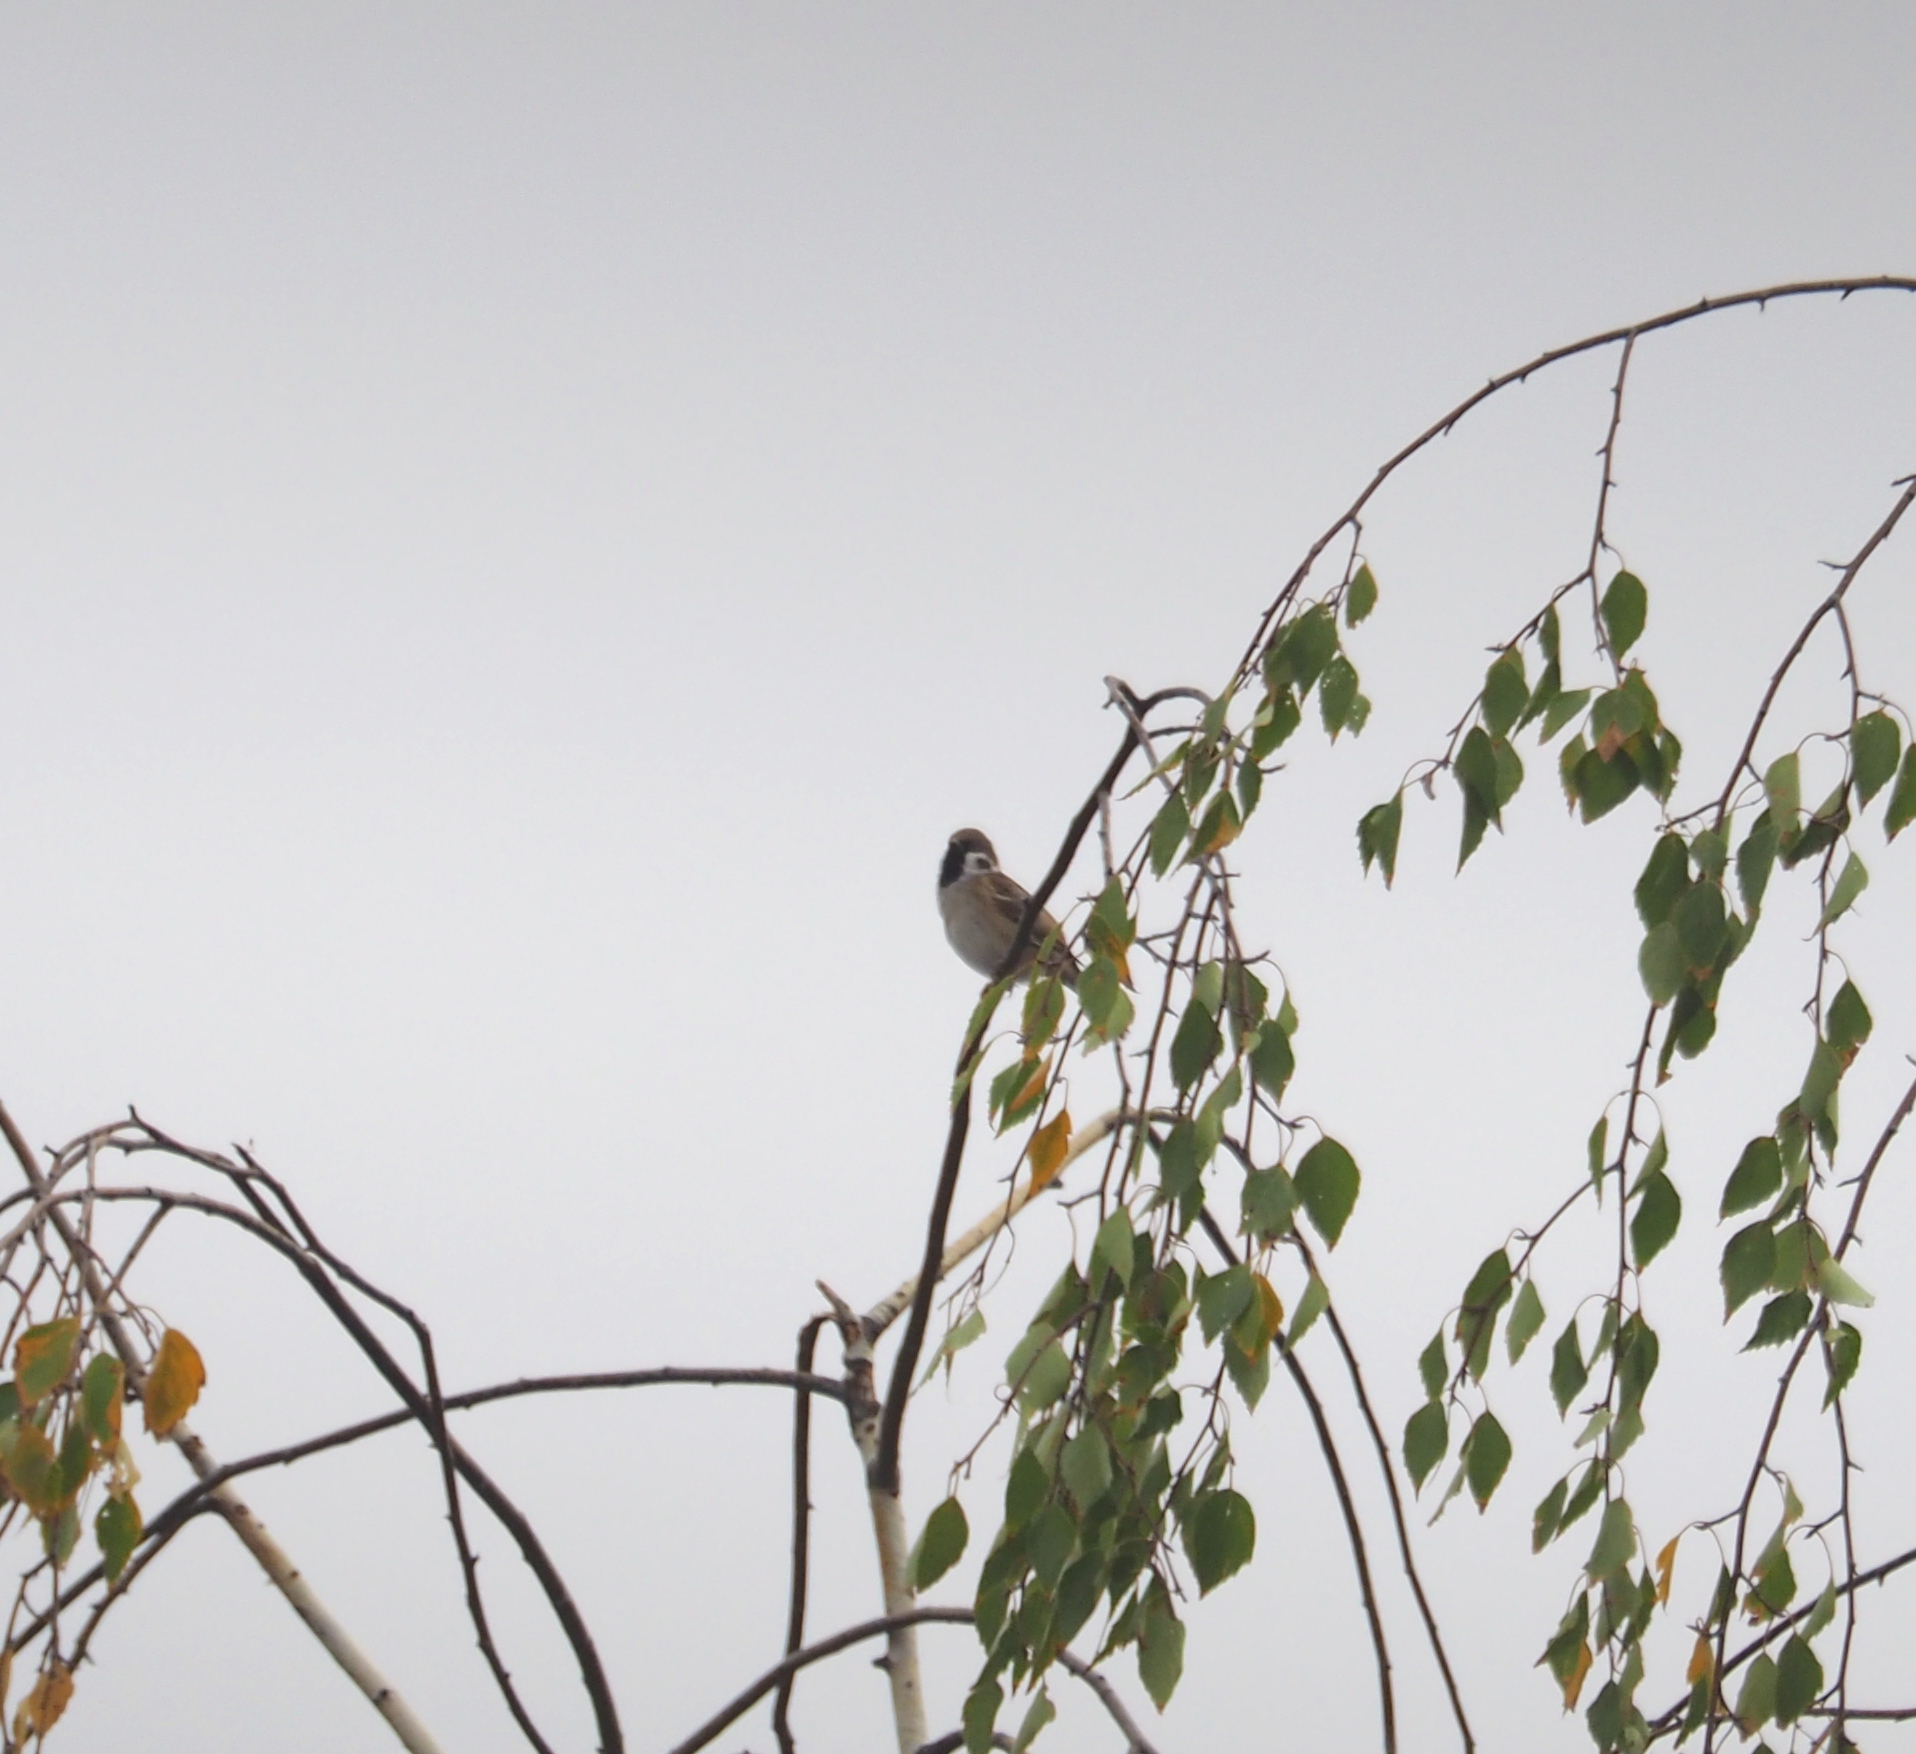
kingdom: Animalia
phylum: Chordata
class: Aves
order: Passeriformes
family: Passeridae
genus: Passer
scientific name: Passer montanus
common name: Eurasian tree sparrow
